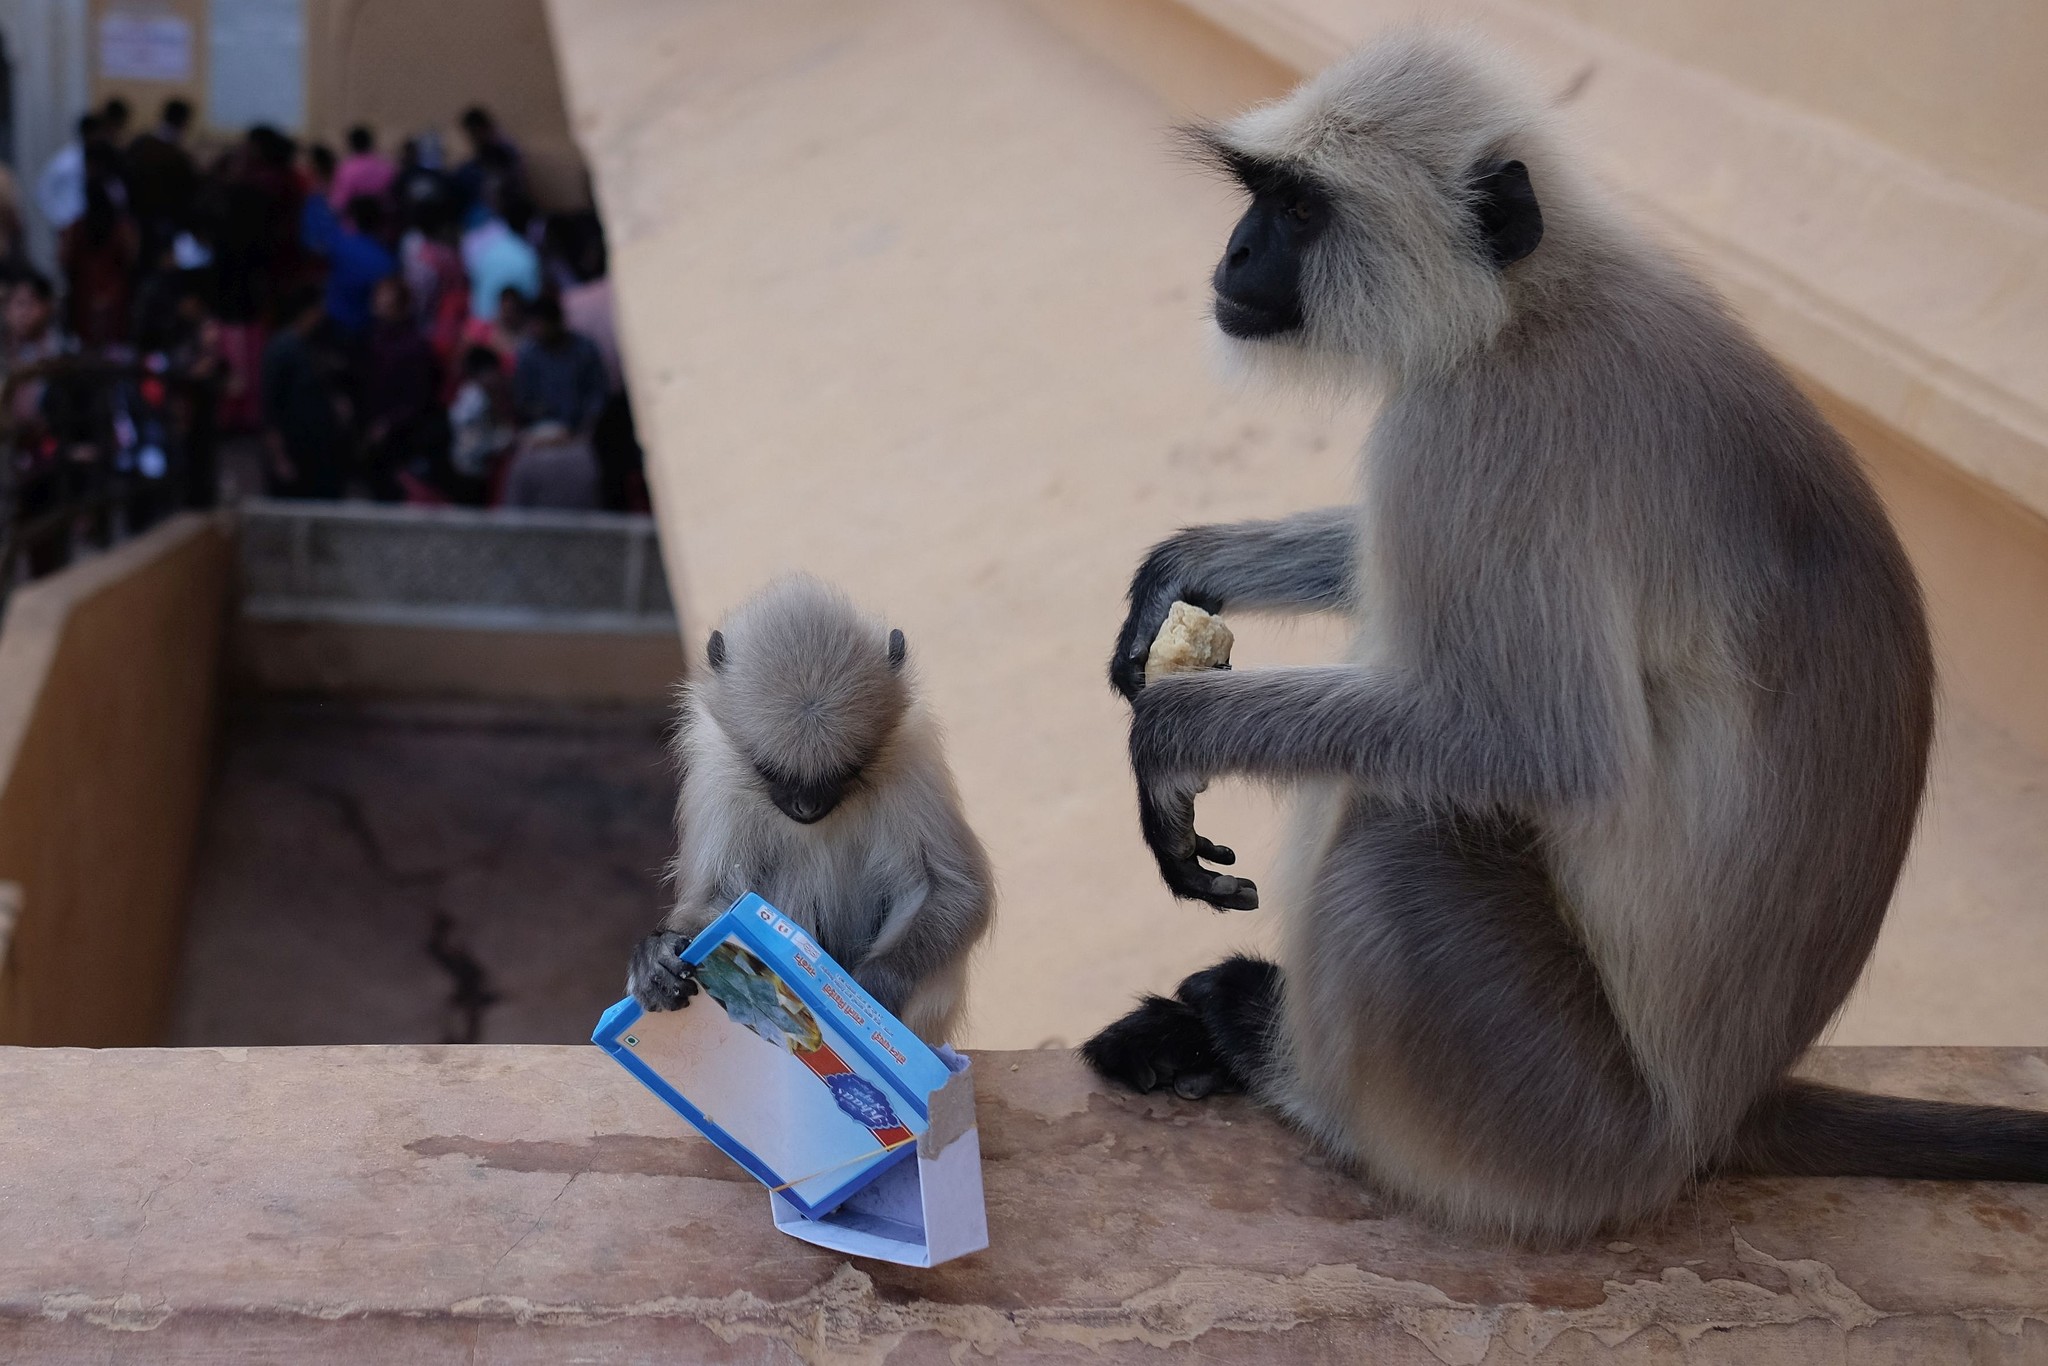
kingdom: Animalia
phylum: Chordata
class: Mammalia
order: Primates
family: Cercopithecidae
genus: Semnopithecus
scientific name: Semnopithecus entellus
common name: Northern plains gray langur
